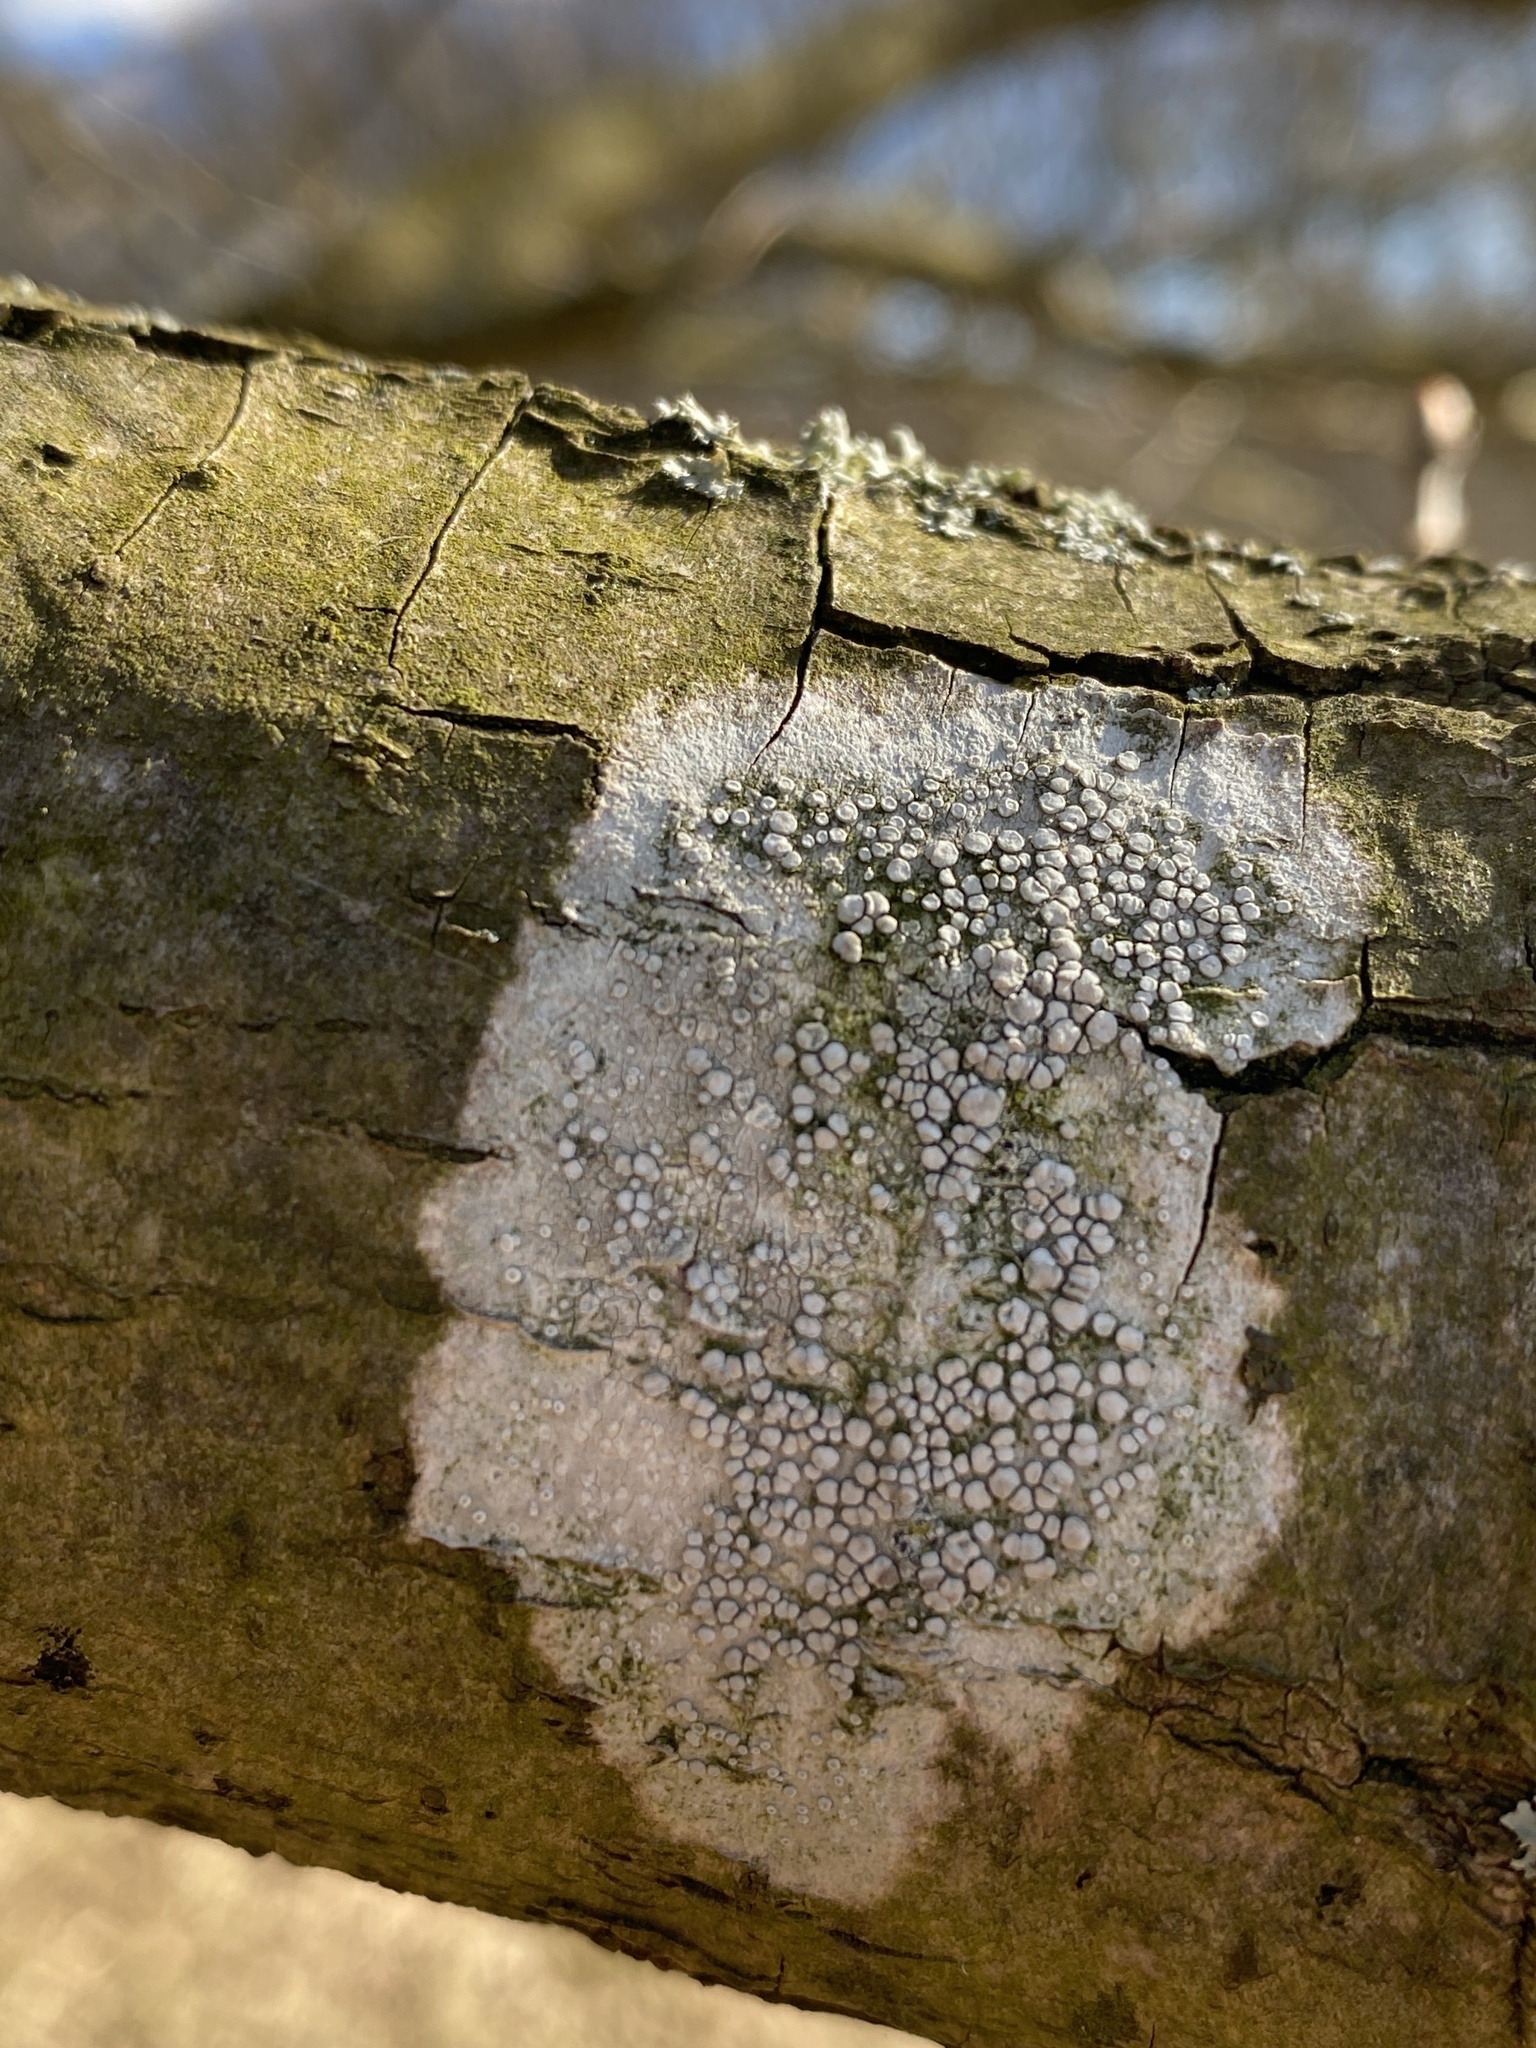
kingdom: Fungi
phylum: Ascomycota
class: Lecanoromycetes
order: Lecanorales
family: Lecanoraceae
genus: Glaucomaria
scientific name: Glaucomaria carpinea
